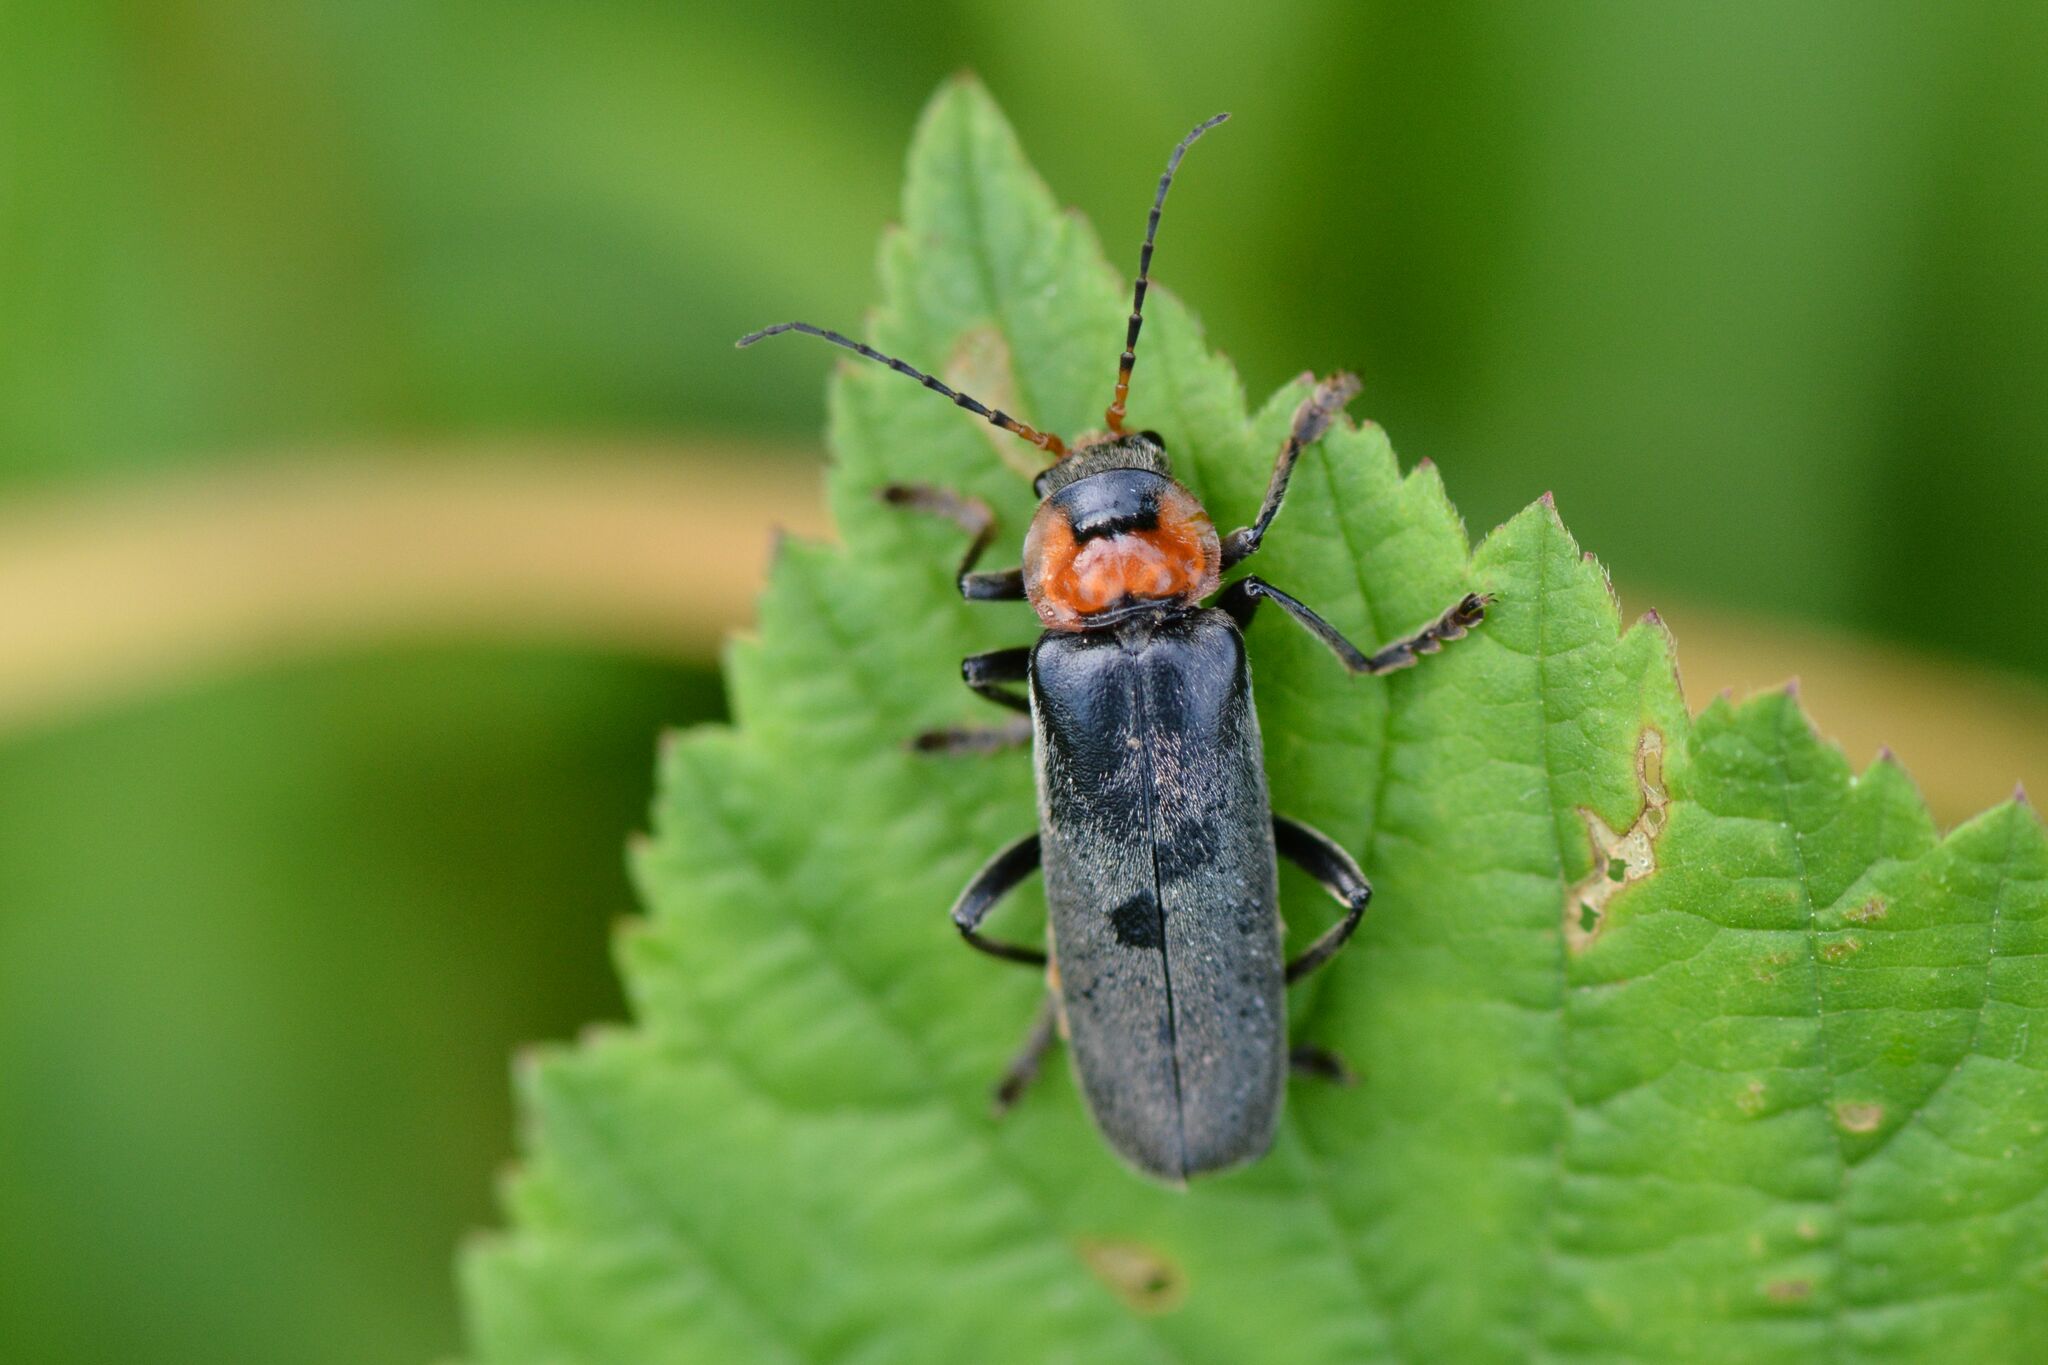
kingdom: Animalia
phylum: Arthropoda
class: Insecta
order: Coleoptera
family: Cantharidae
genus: Cantharis
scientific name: Cantharis fusca
